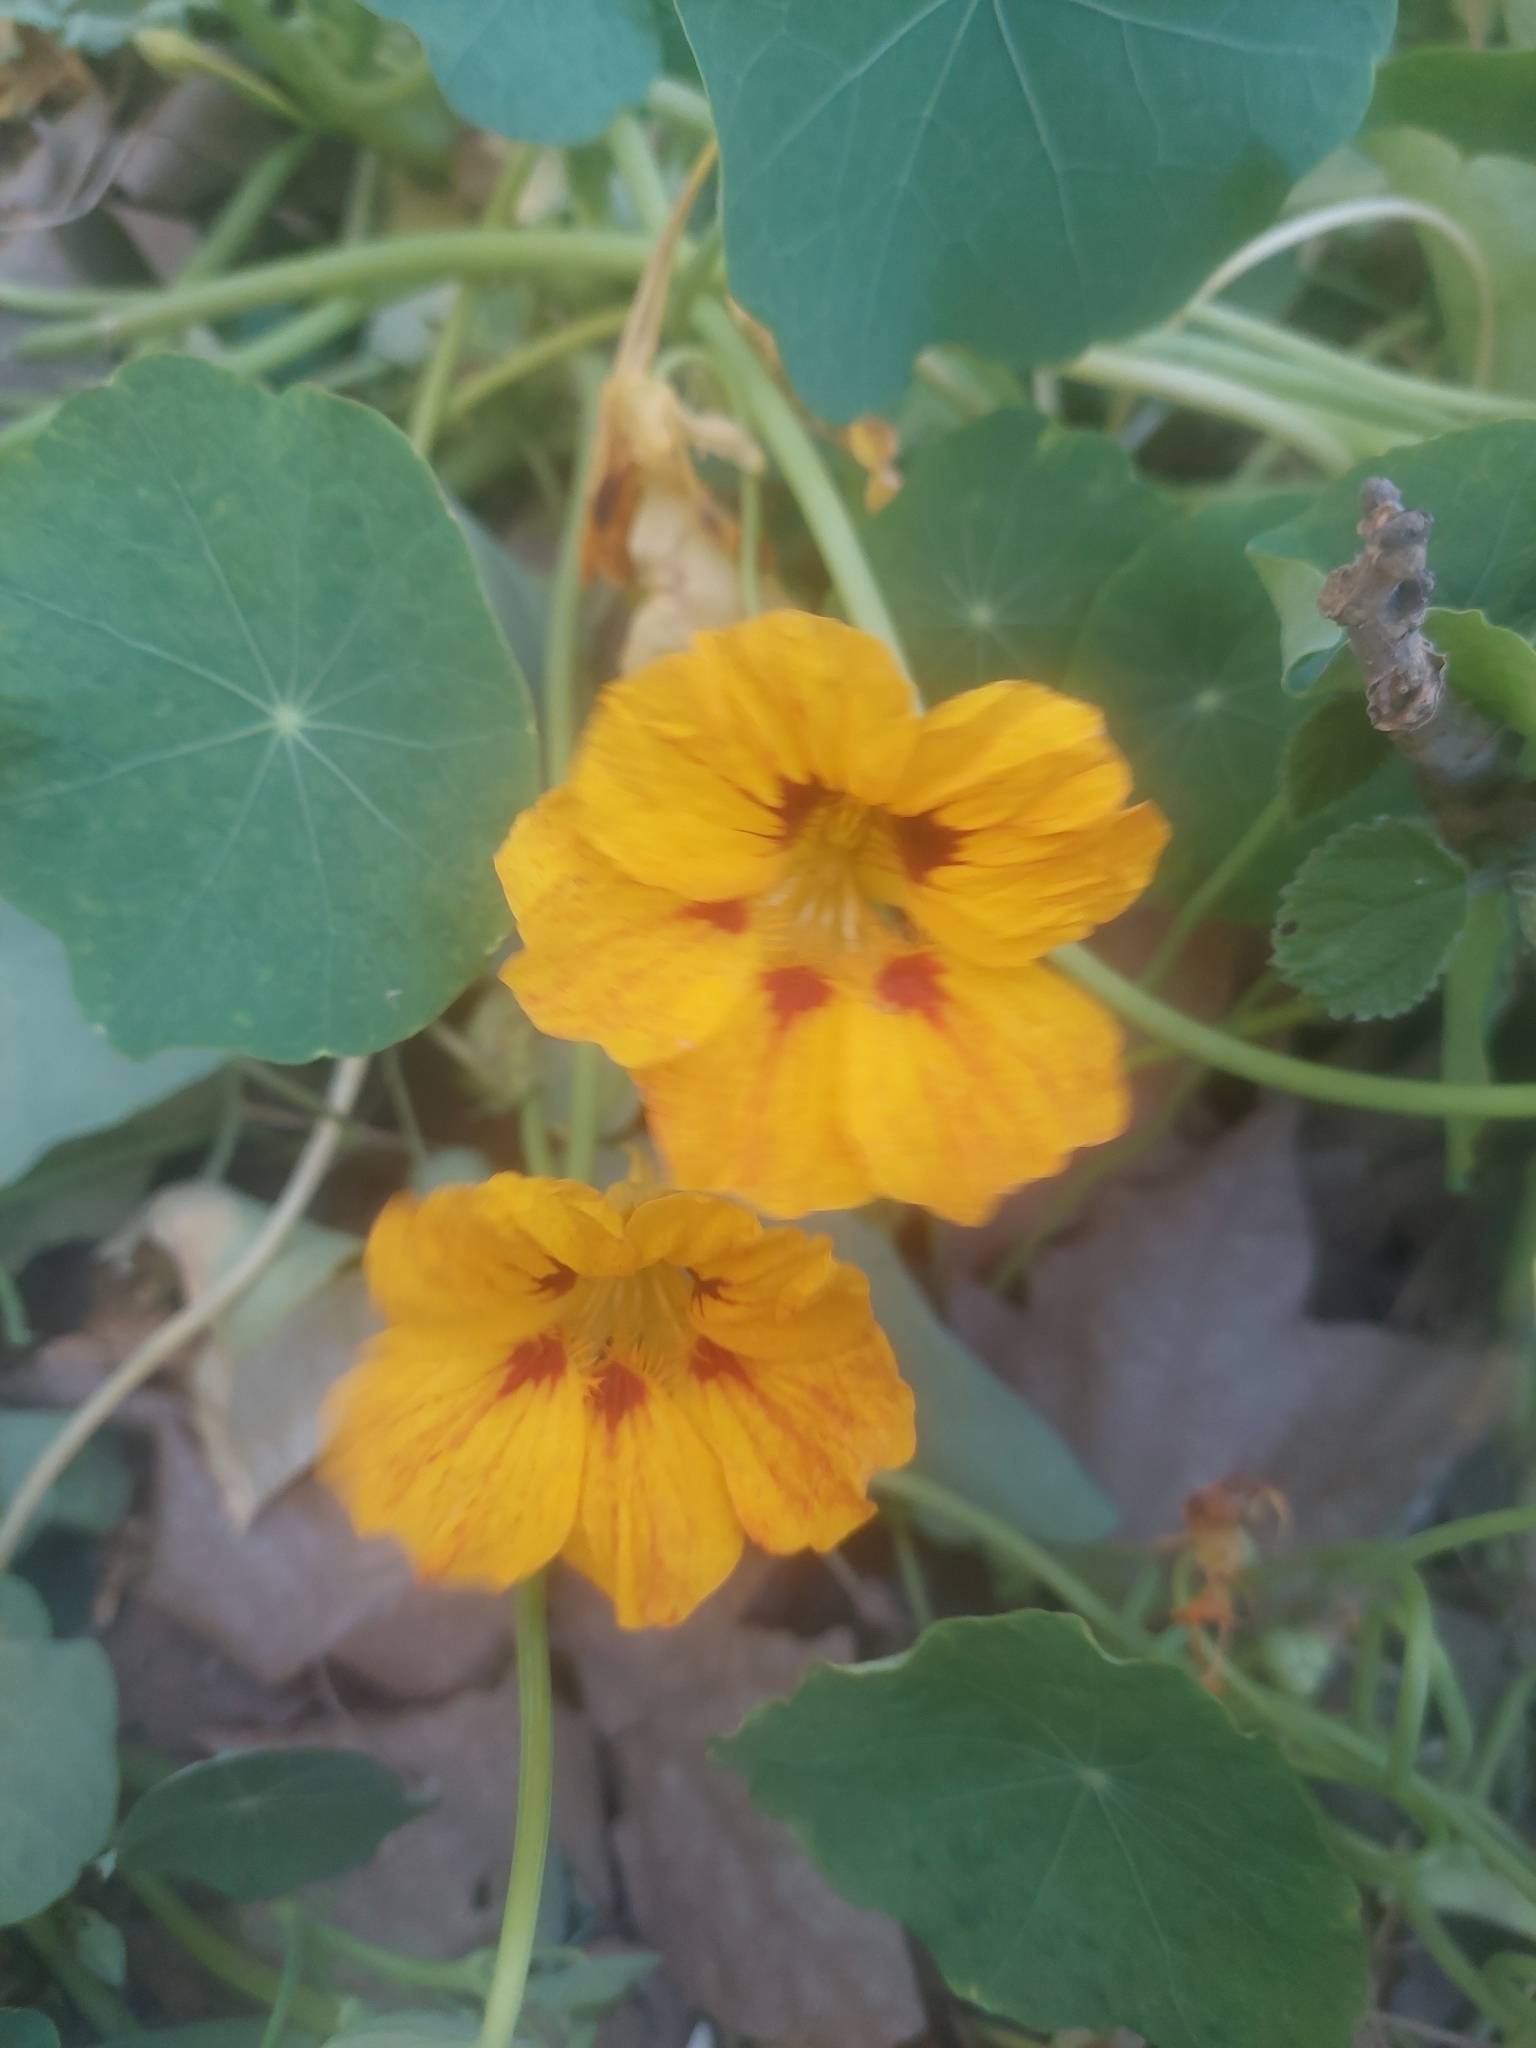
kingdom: Plantae
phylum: Tracheophyta
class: Magnoliopsida
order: Brassicales
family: Tropaeolaceae
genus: Tropaeolum
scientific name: Tropaeolum majus
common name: Nasturtium
